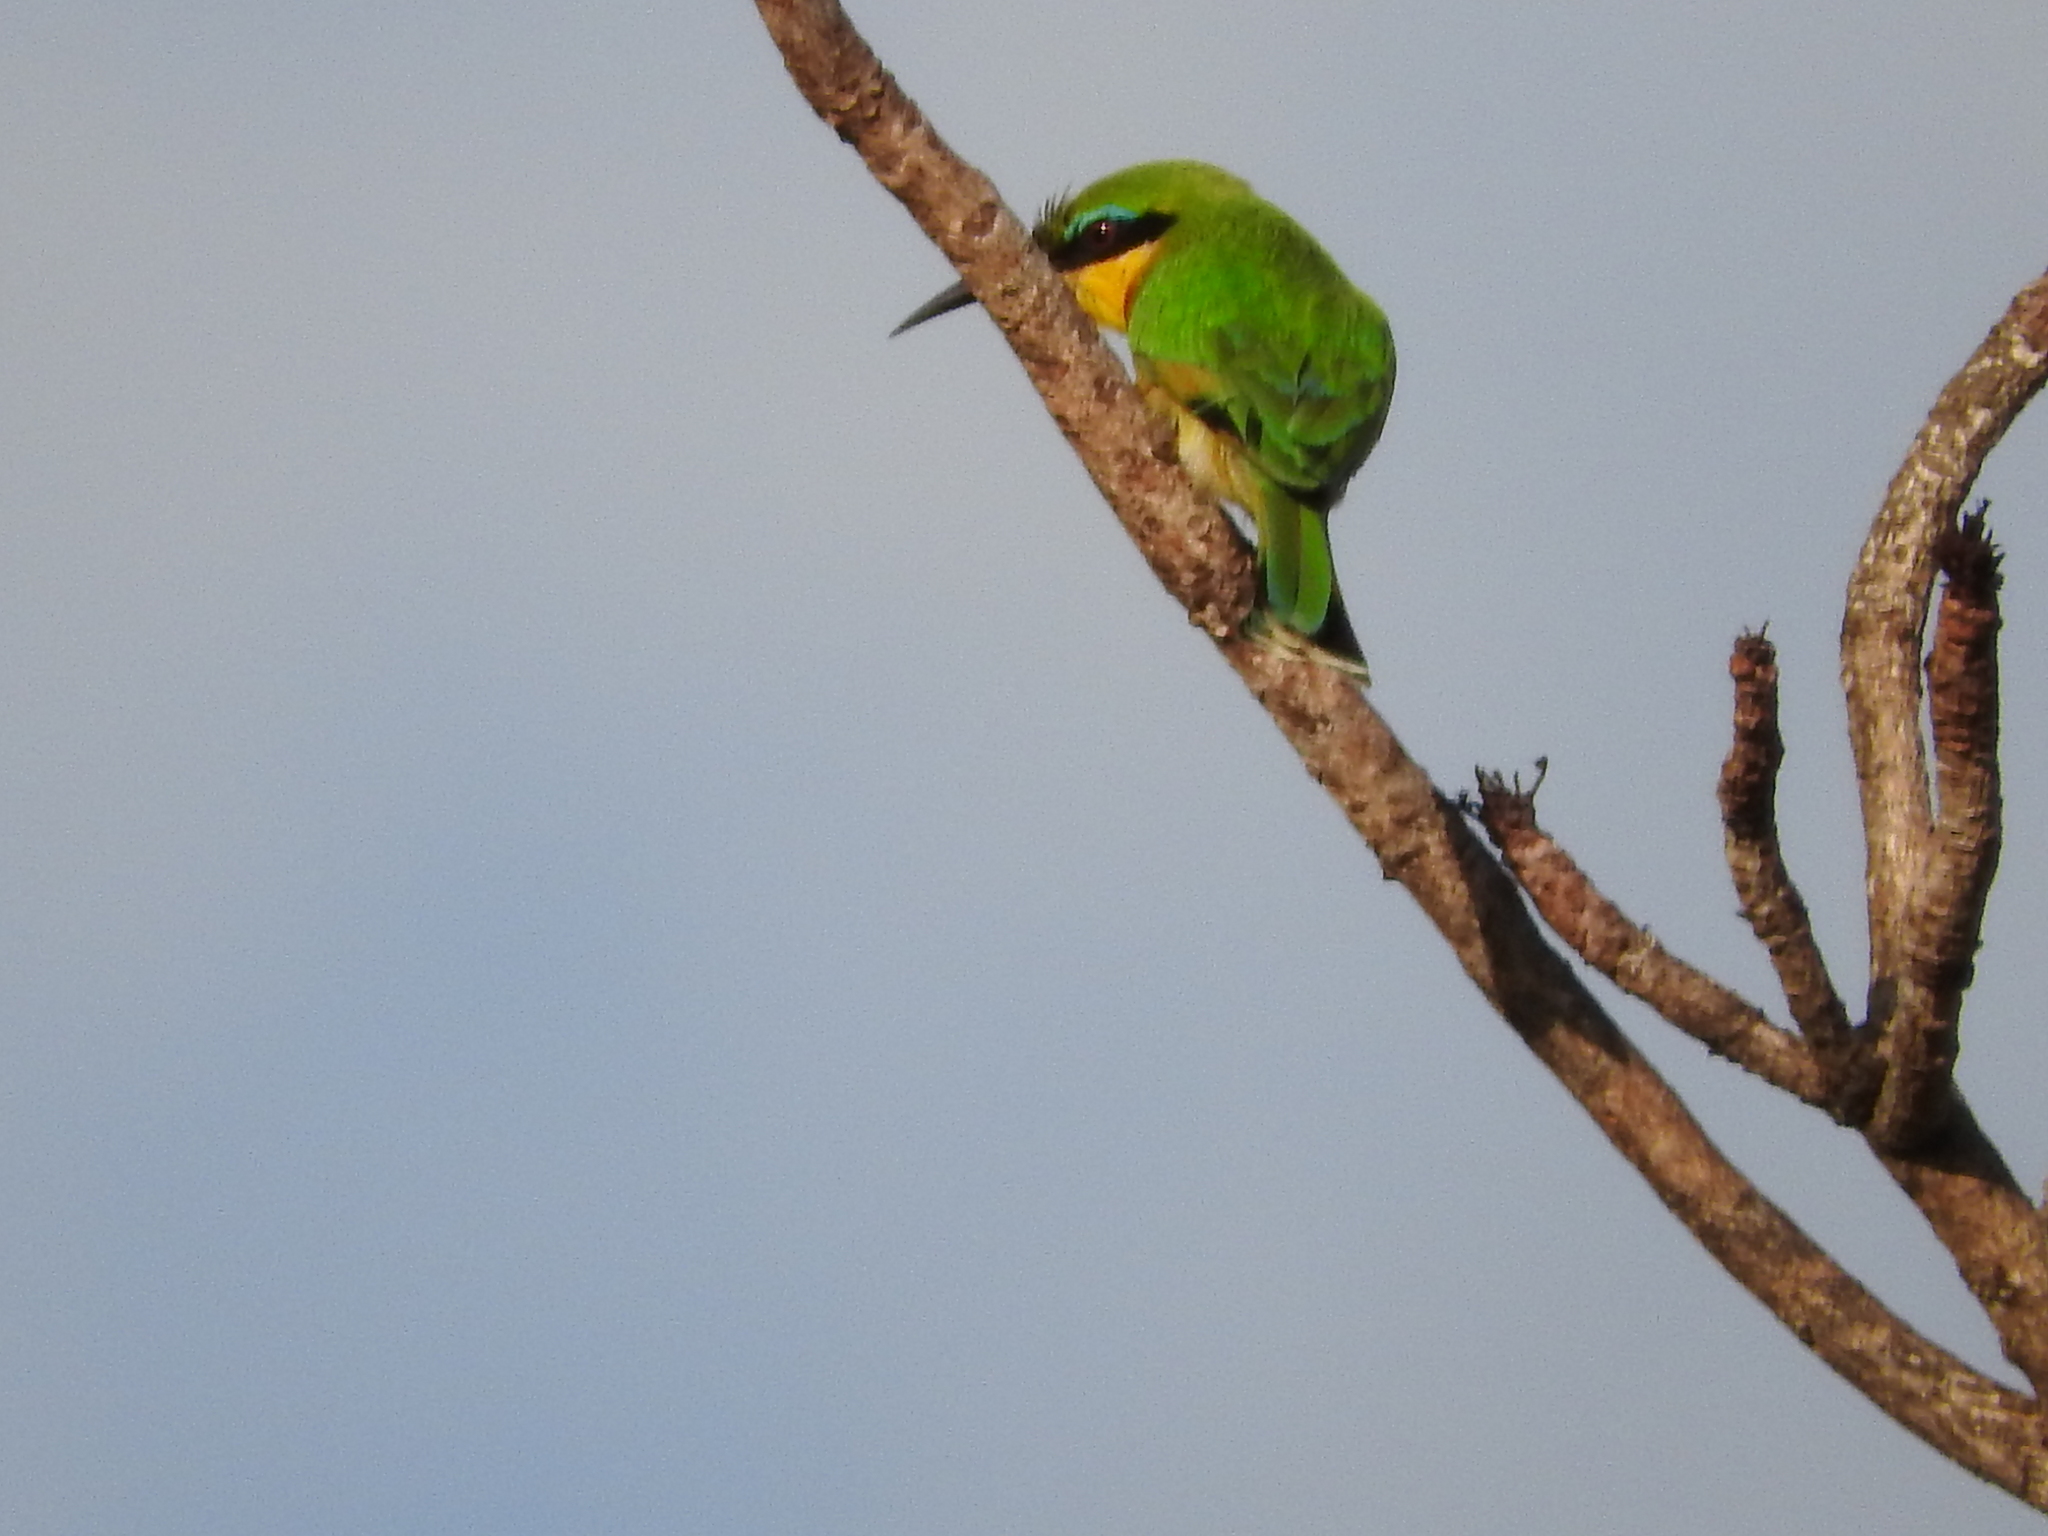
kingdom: Animalia
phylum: Chordata
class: Aves
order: Coraciiformes
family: Meropidae
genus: Merops
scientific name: Merops pusillus
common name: Little bee-eater
